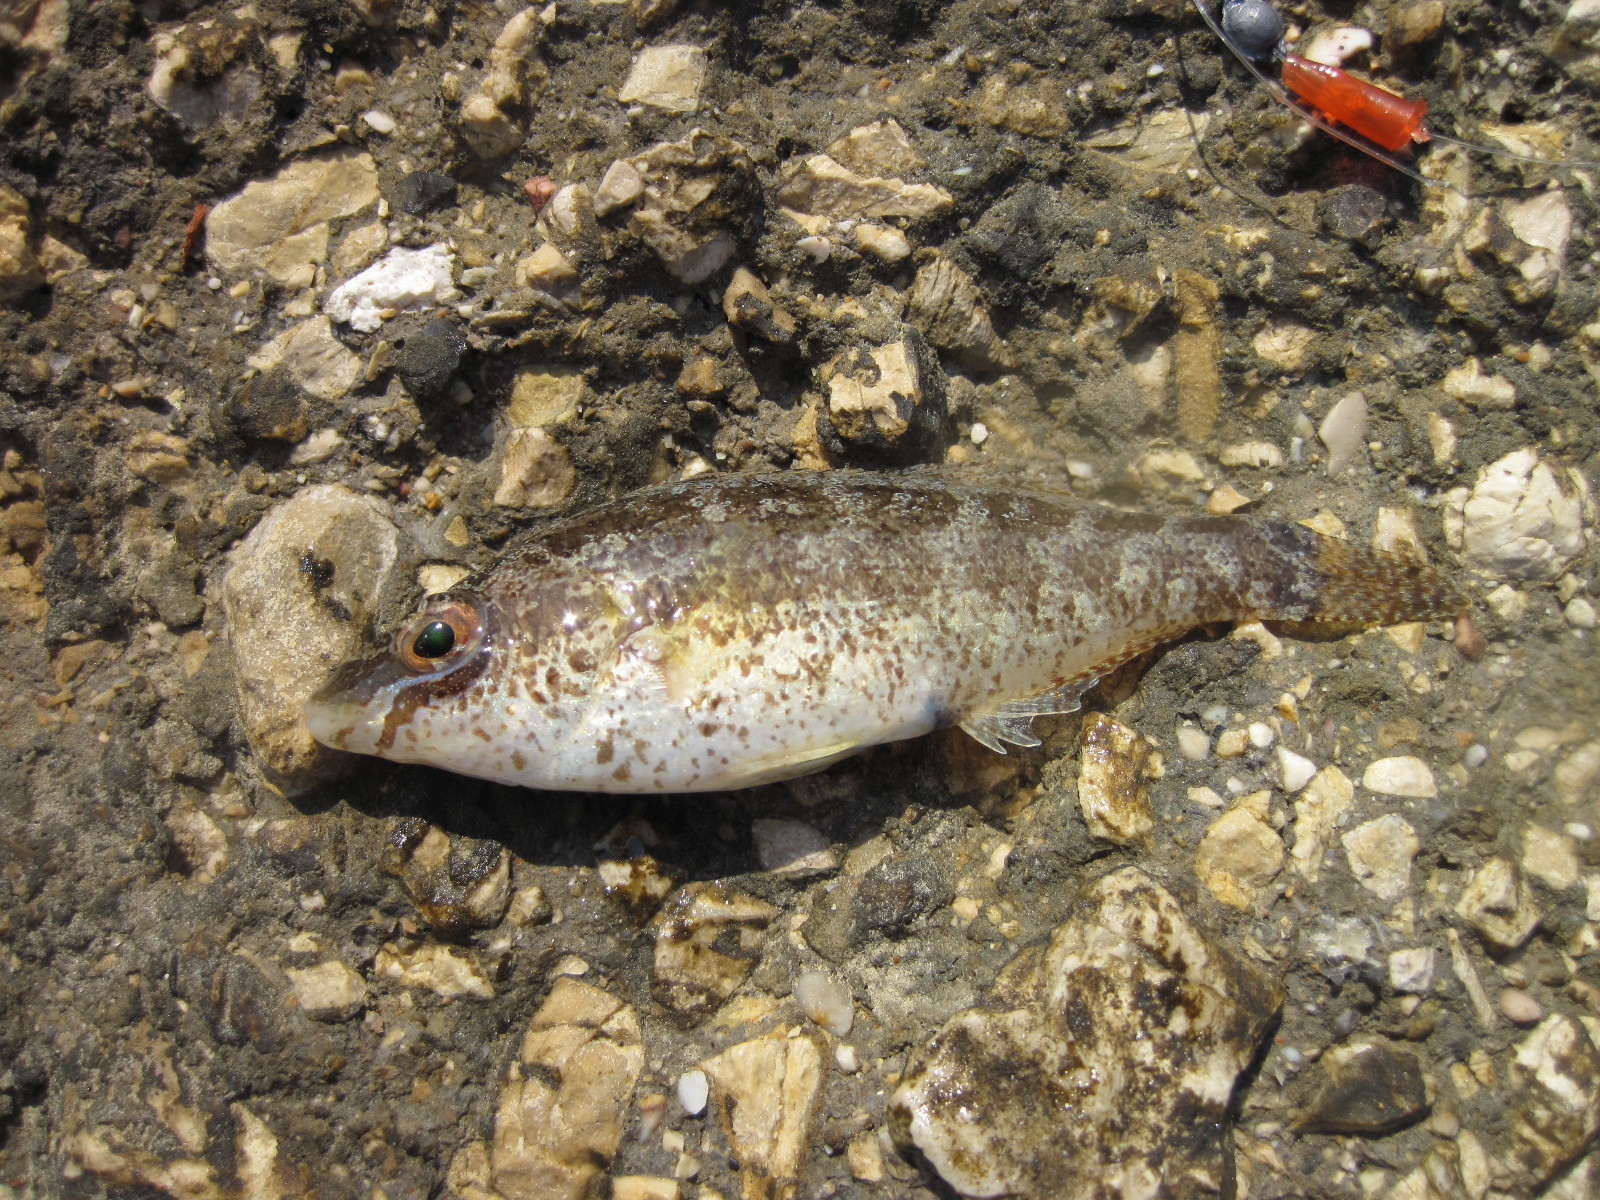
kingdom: Animalia
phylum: Chordata
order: Perciformes
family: Labridae
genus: Symphodus
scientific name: Symphodus cinereus
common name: Grey wrasse
